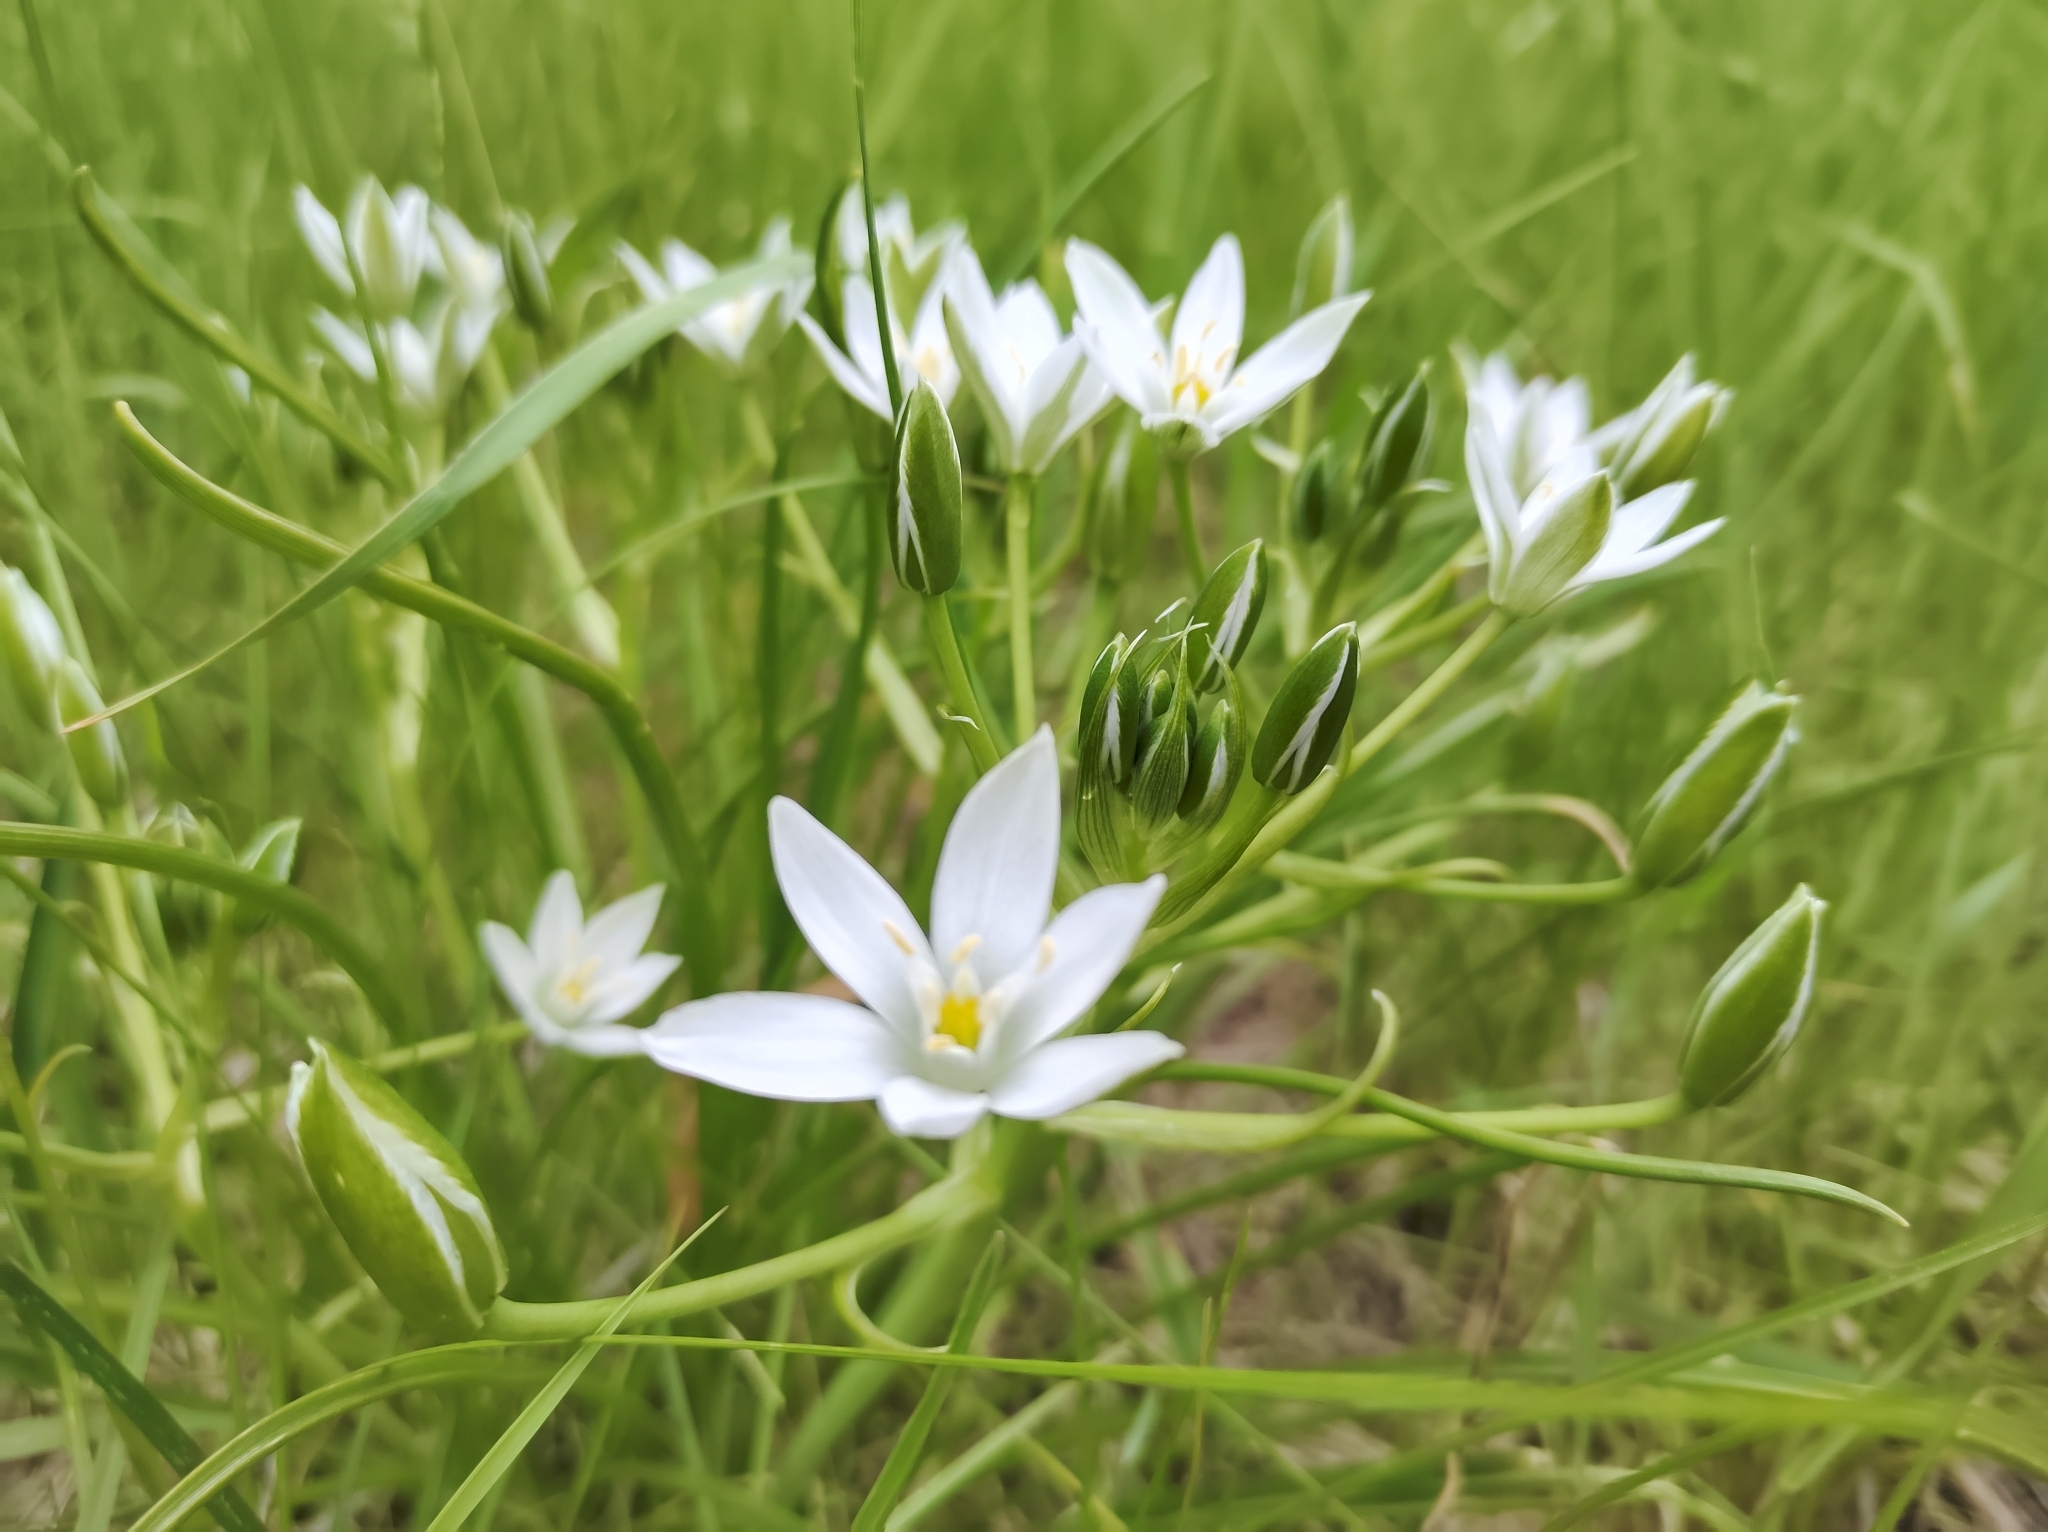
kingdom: Plantae
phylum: Tracheophyta
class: Liliopsida
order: Asparagales
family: Asparagaceae
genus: Ornithogalum
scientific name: Ornithogalum umbellatum
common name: Garden star-of-bethlehem
